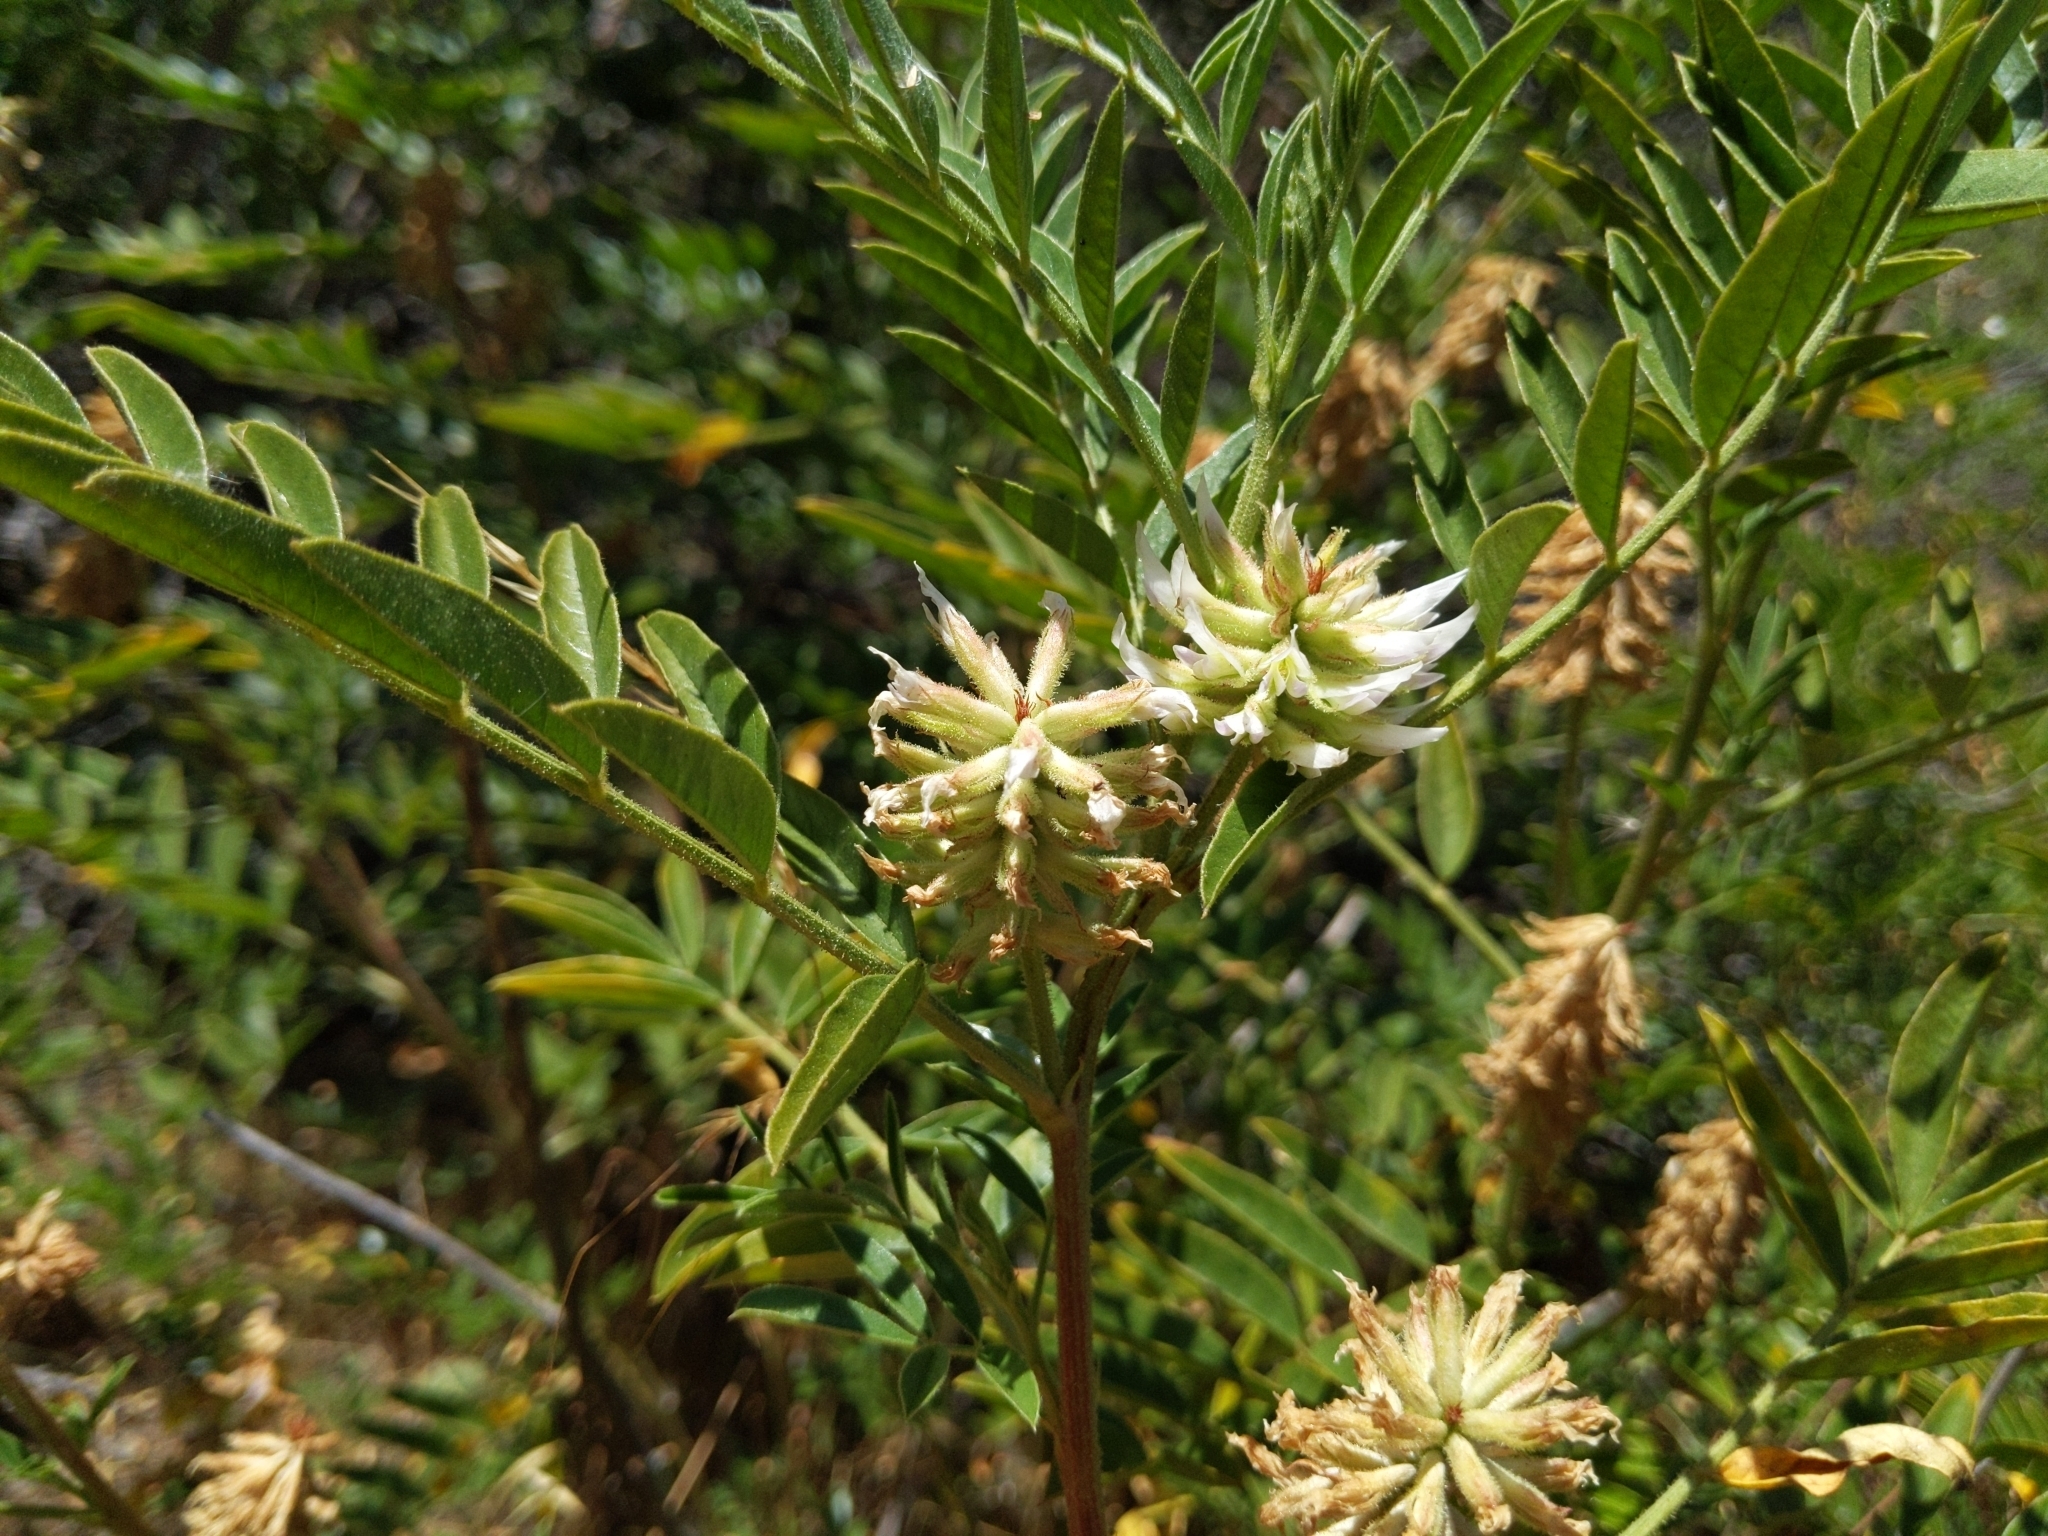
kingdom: Plantae
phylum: Tracheophyta
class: Magnoliopsida
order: Fabales
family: Fabaceae
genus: Glycyrrhiza
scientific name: Glycyrrhiza lepidota
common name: American liquorice
